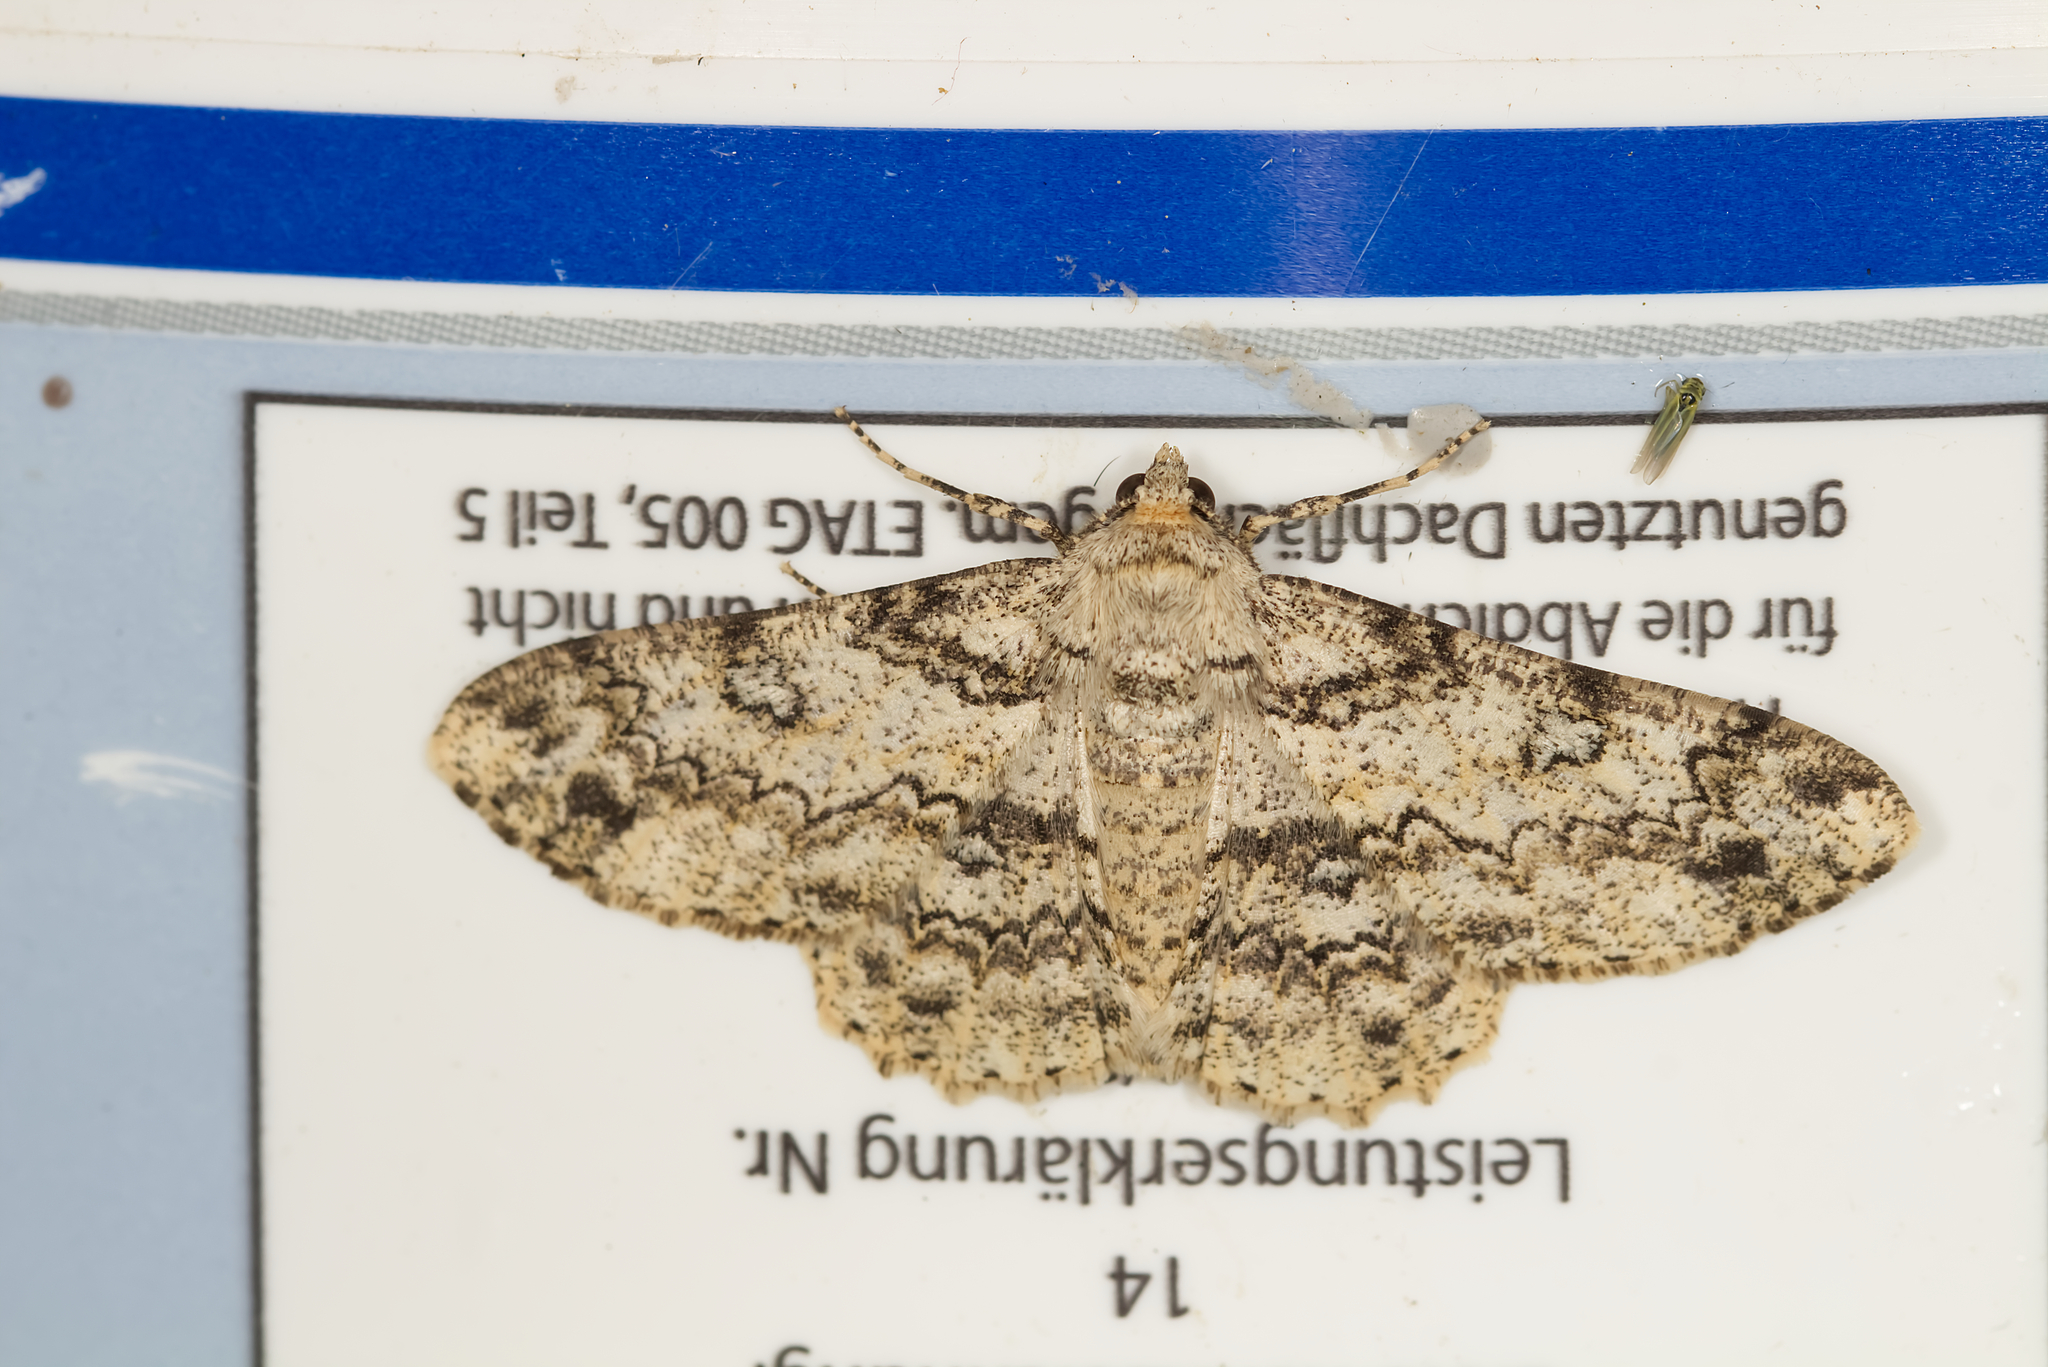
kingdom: Animalia
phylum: Arthropoda
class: Insecta
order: Lepidoptera
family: Geometridae
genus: Ascotis
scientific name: Ascotis selenaria
